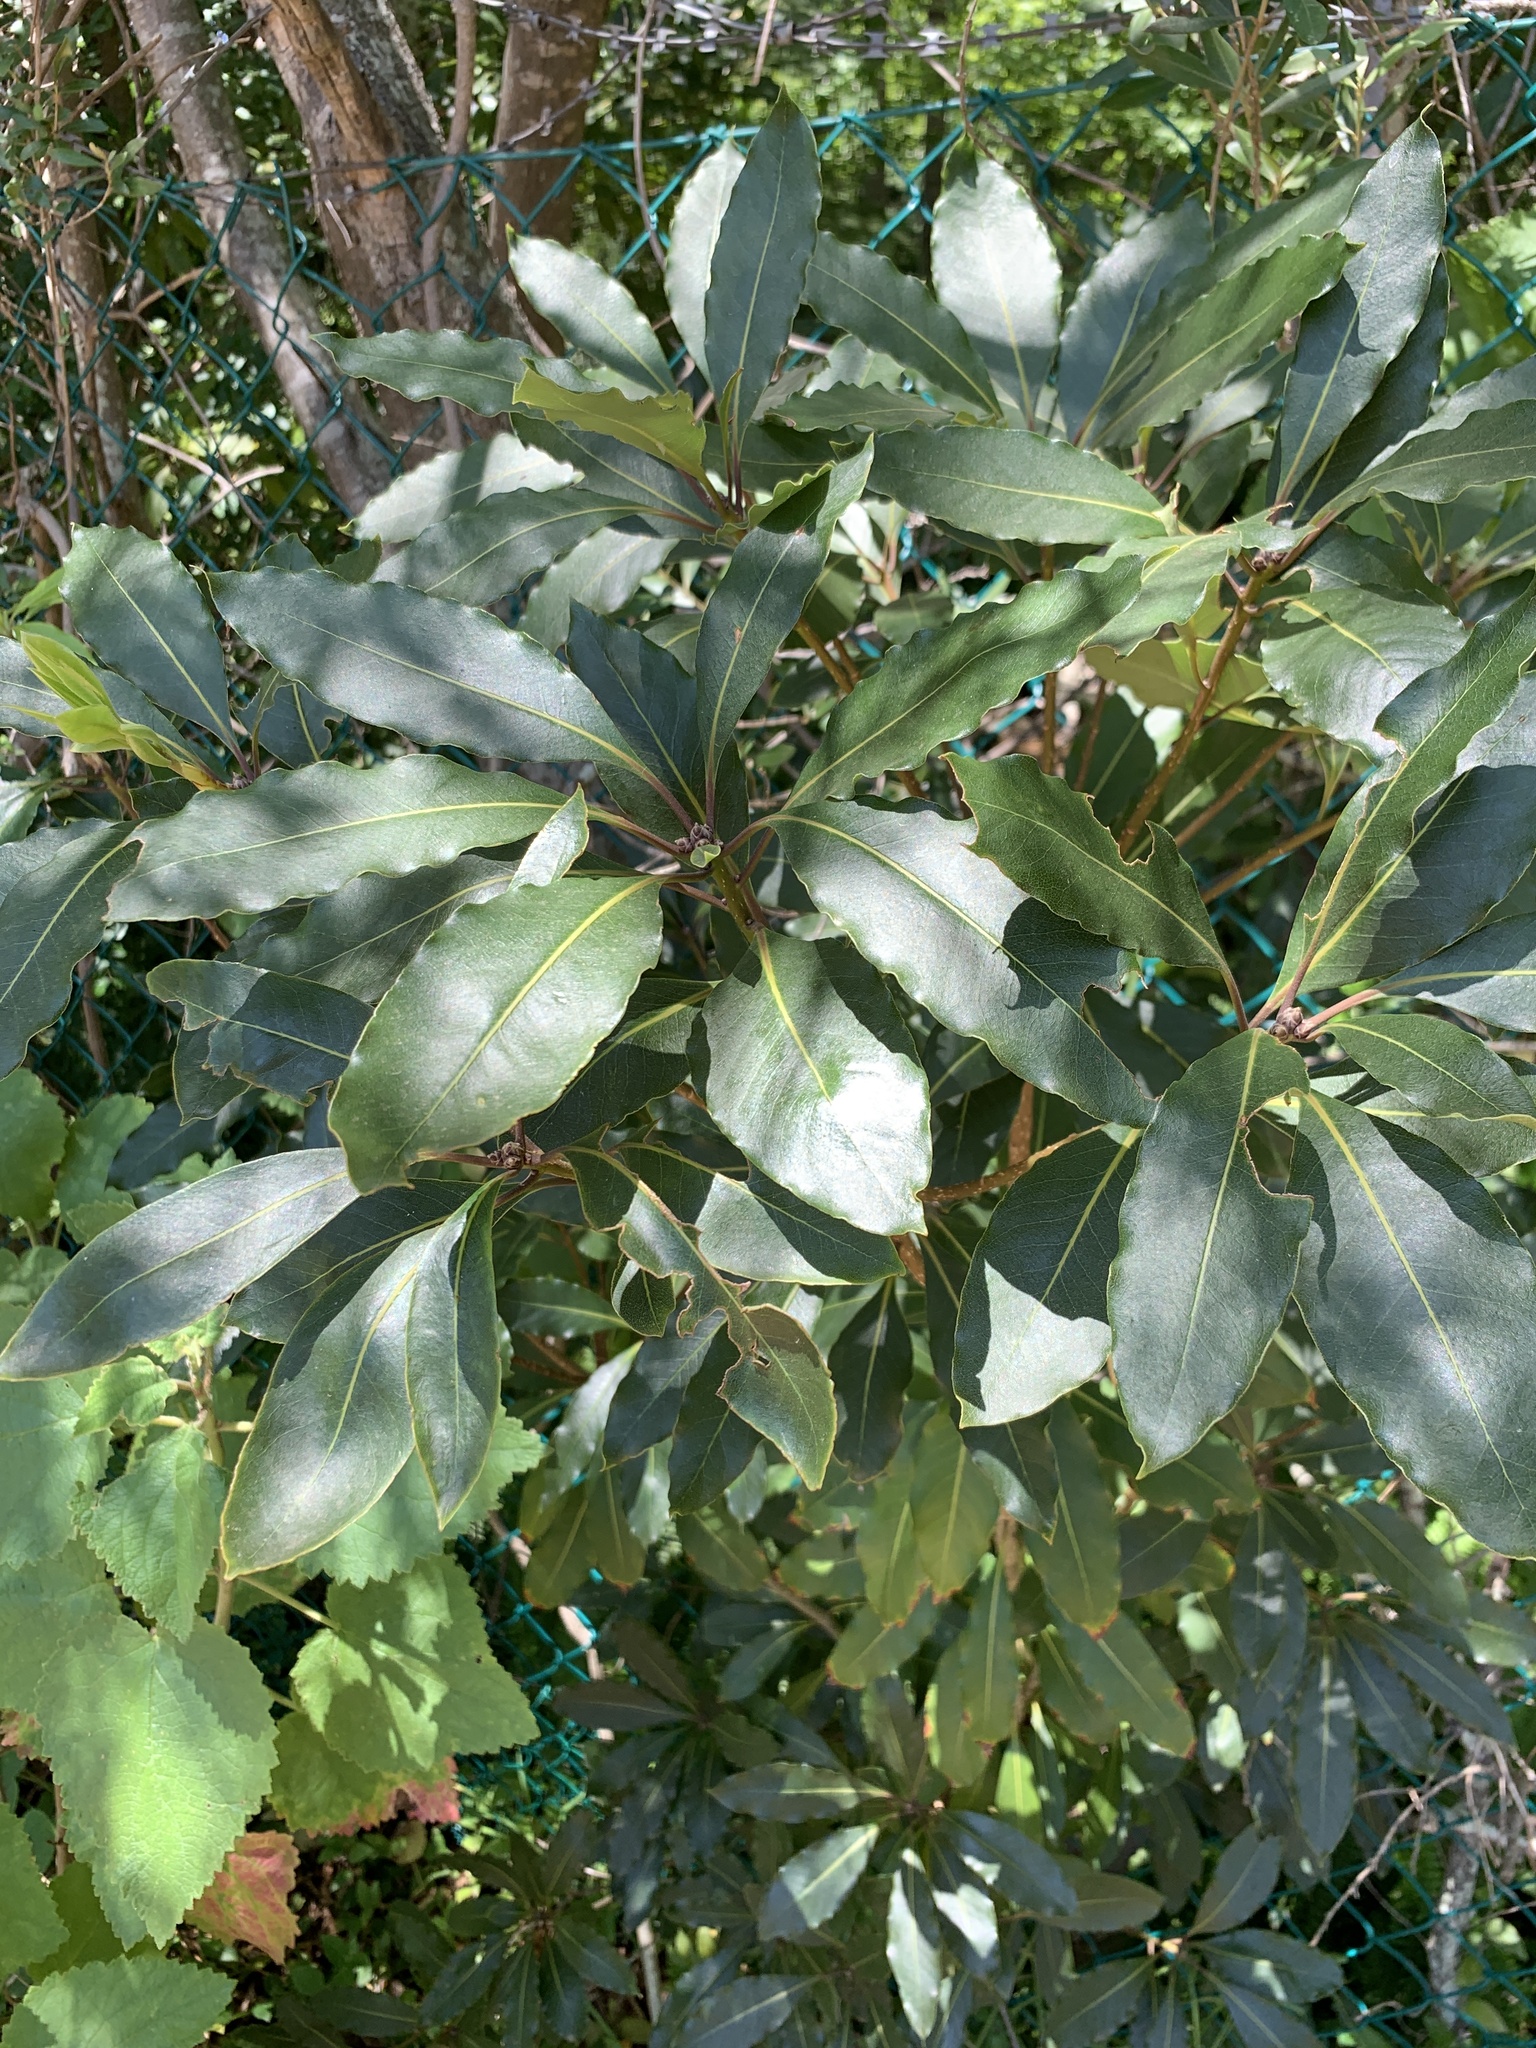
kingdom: Plantae
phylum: Tracheophyta
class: Magnoliopsida
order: Apiales
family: Pittosporaceae
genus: Pittosporum
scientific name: Pittosporum undulatum
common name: Australian cheesewood
